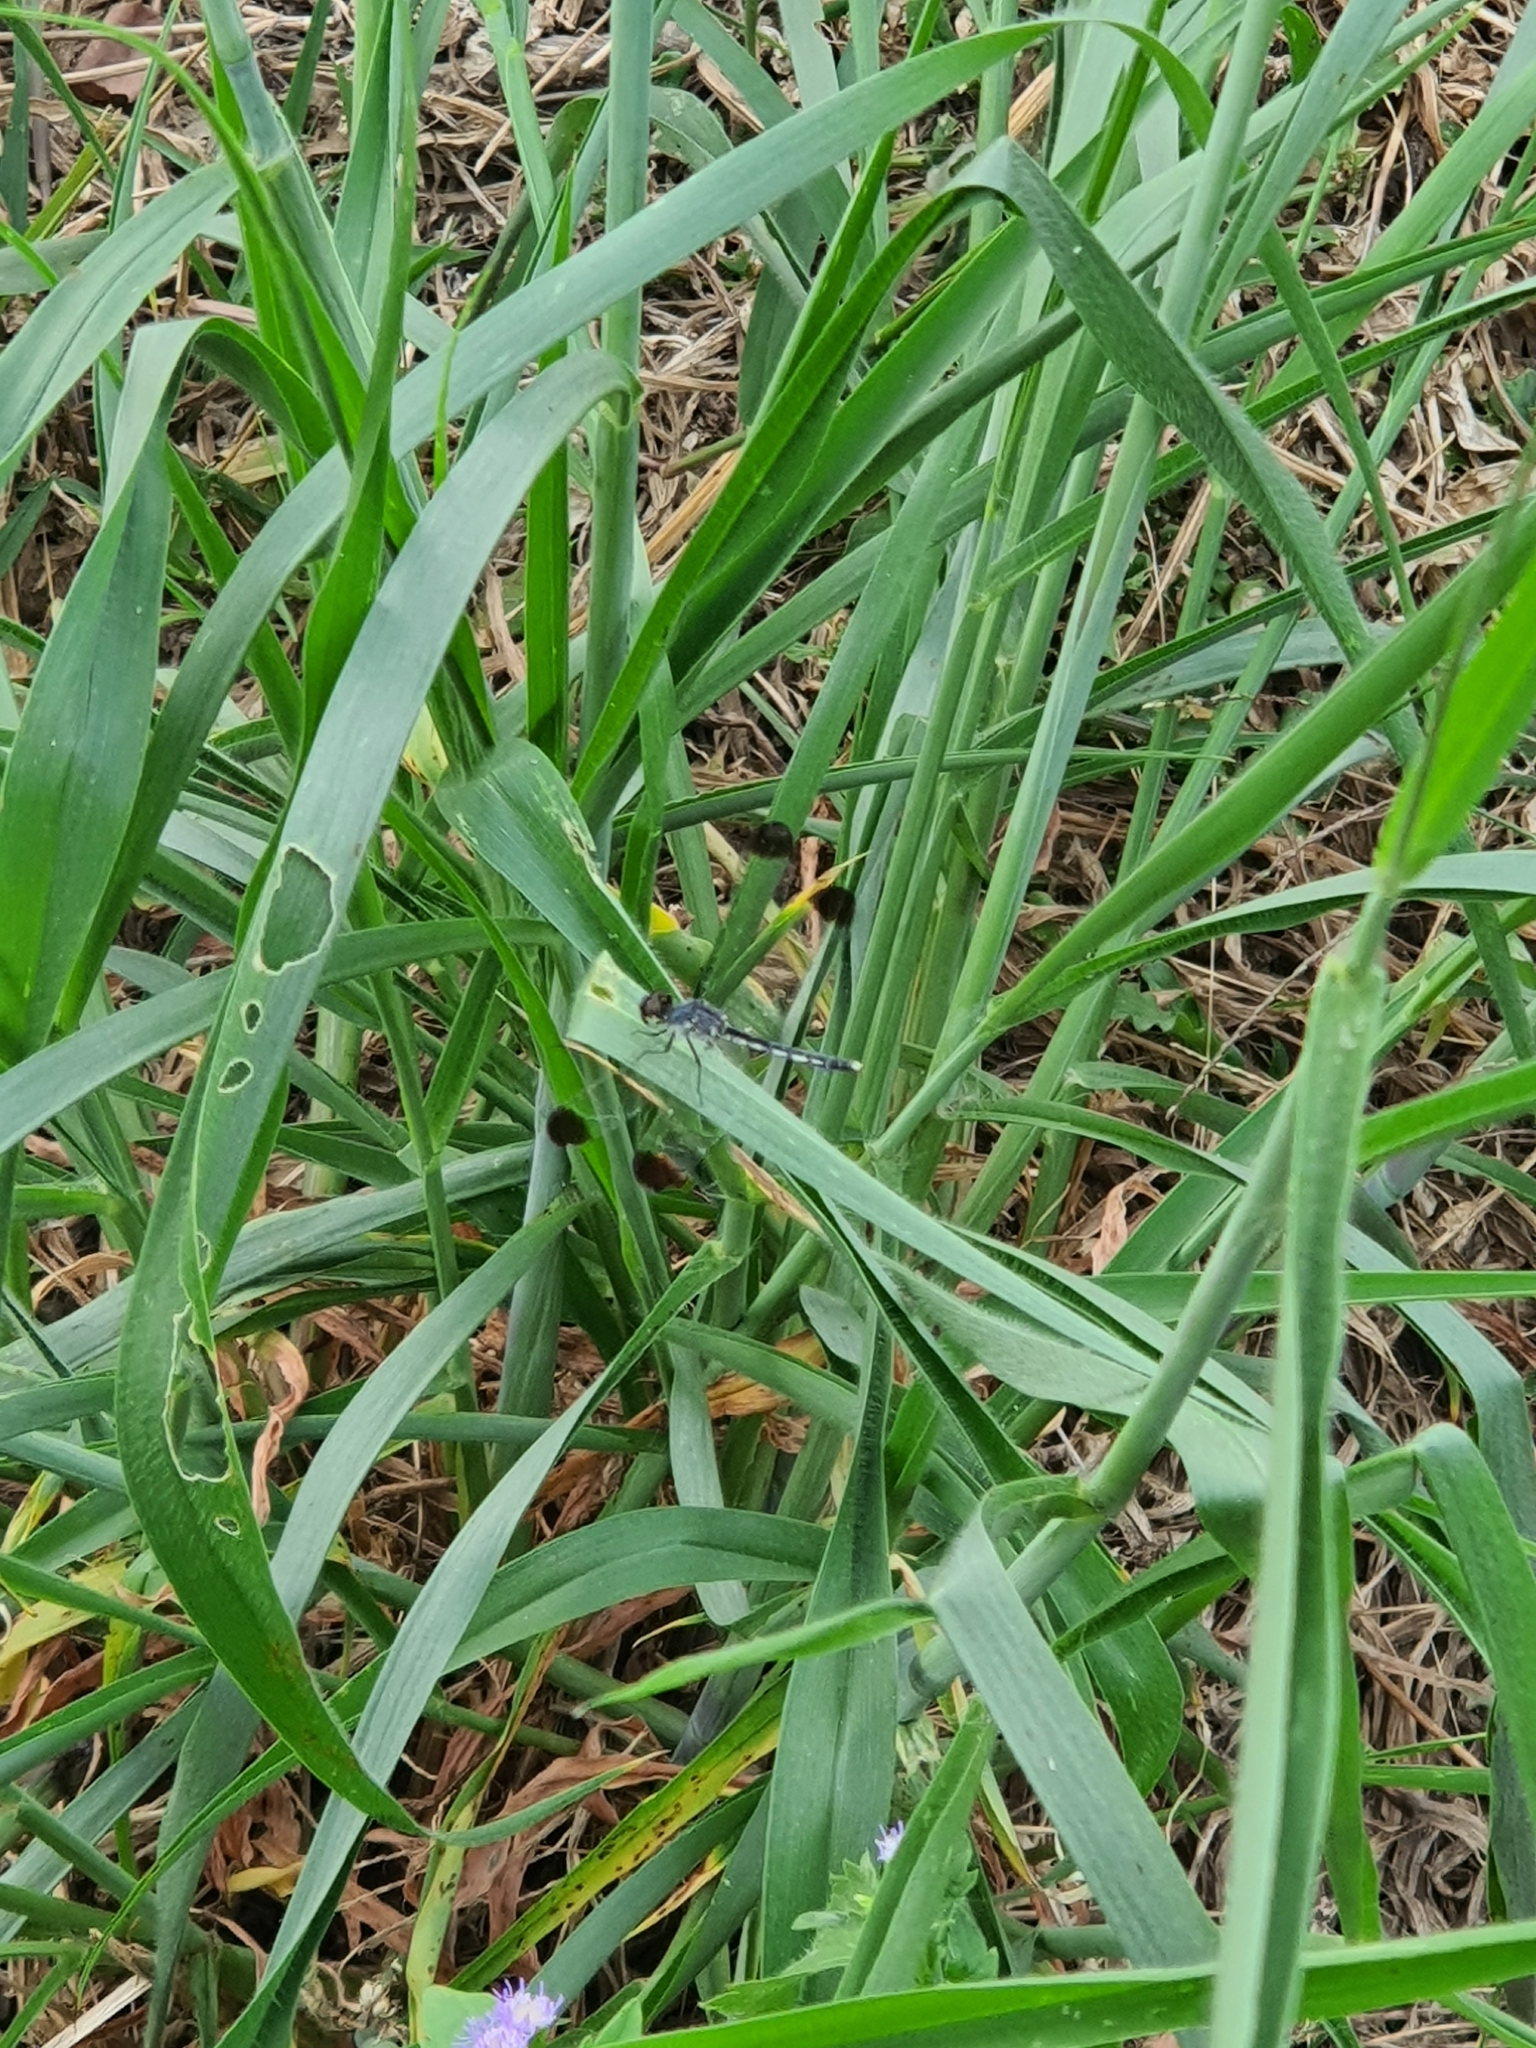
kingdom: Animalia
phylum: Arthropoda
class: Insecta
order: Odonata
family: Libellulidae
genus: Diplacodes
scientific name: Diplacodes nebulosa
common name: Black-tipped percher
